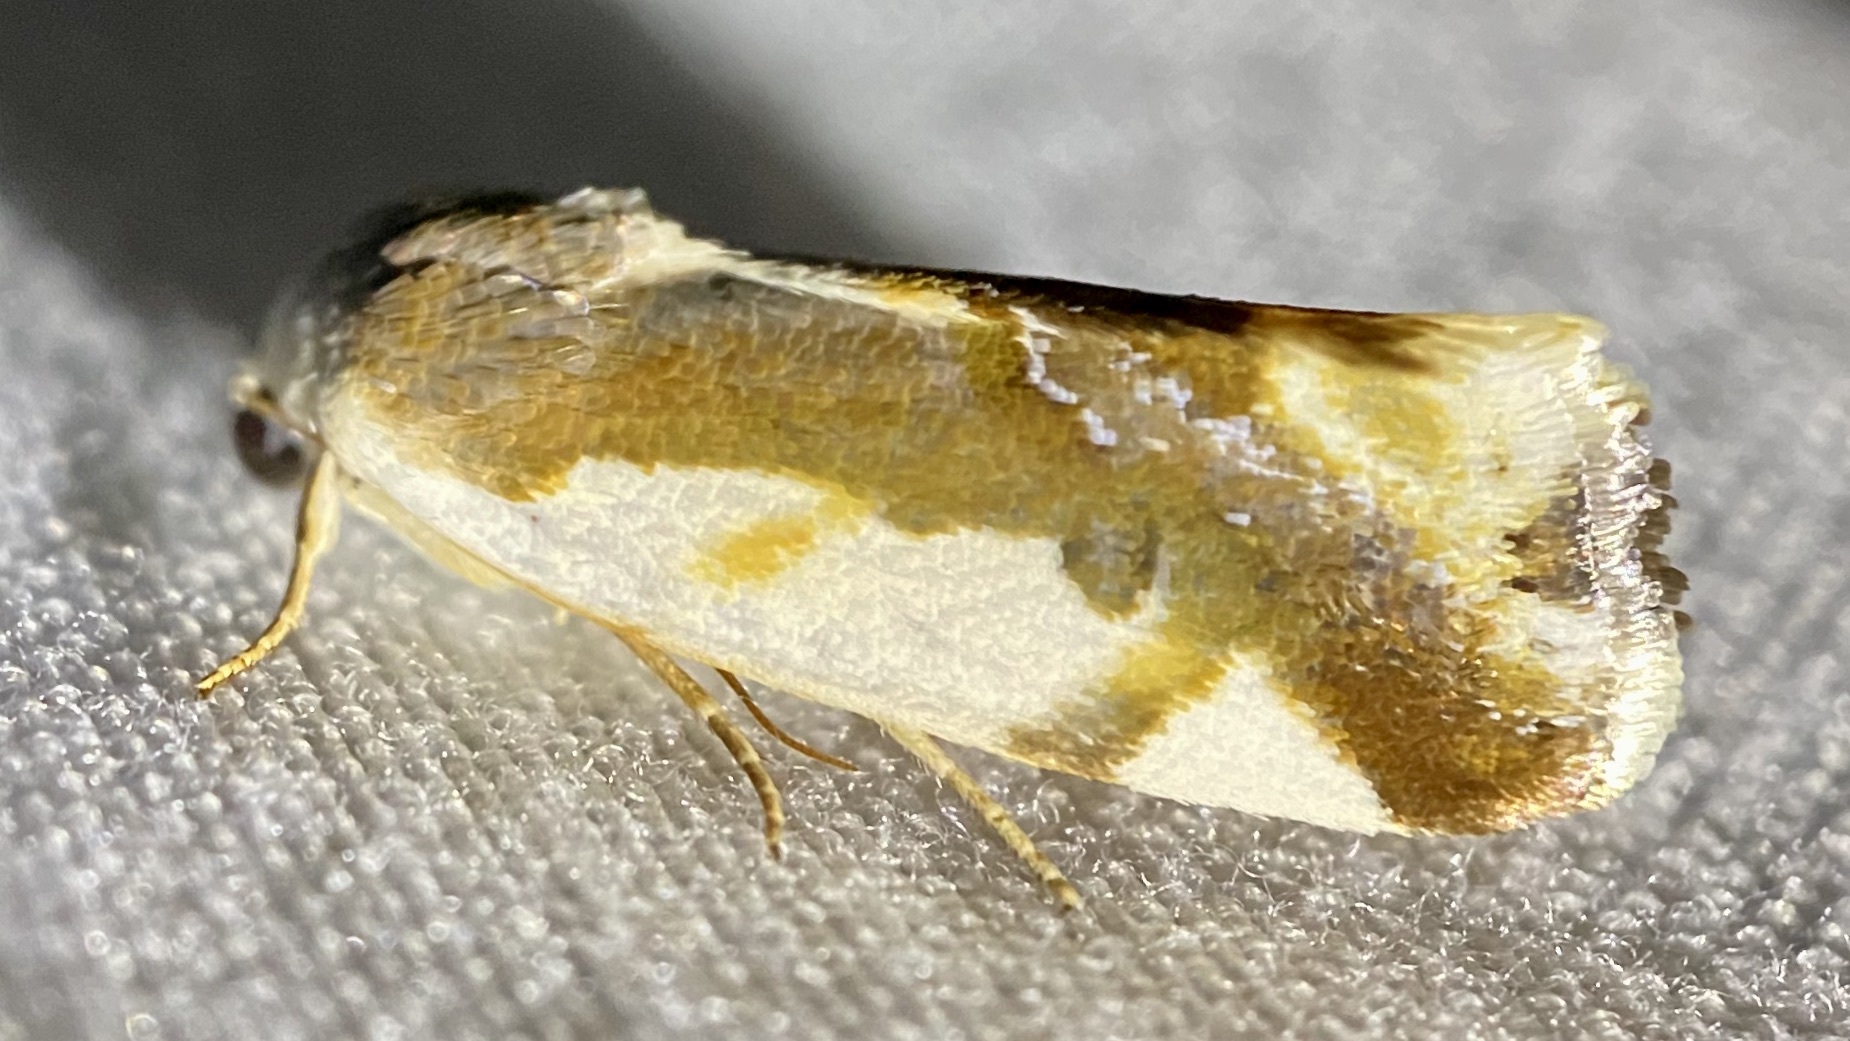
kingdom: Animalia
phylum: Arthropoda
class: Insecta
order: Lepidoptera
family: Noctuidae
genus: Acontia
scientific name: Acontia Tarache cora
